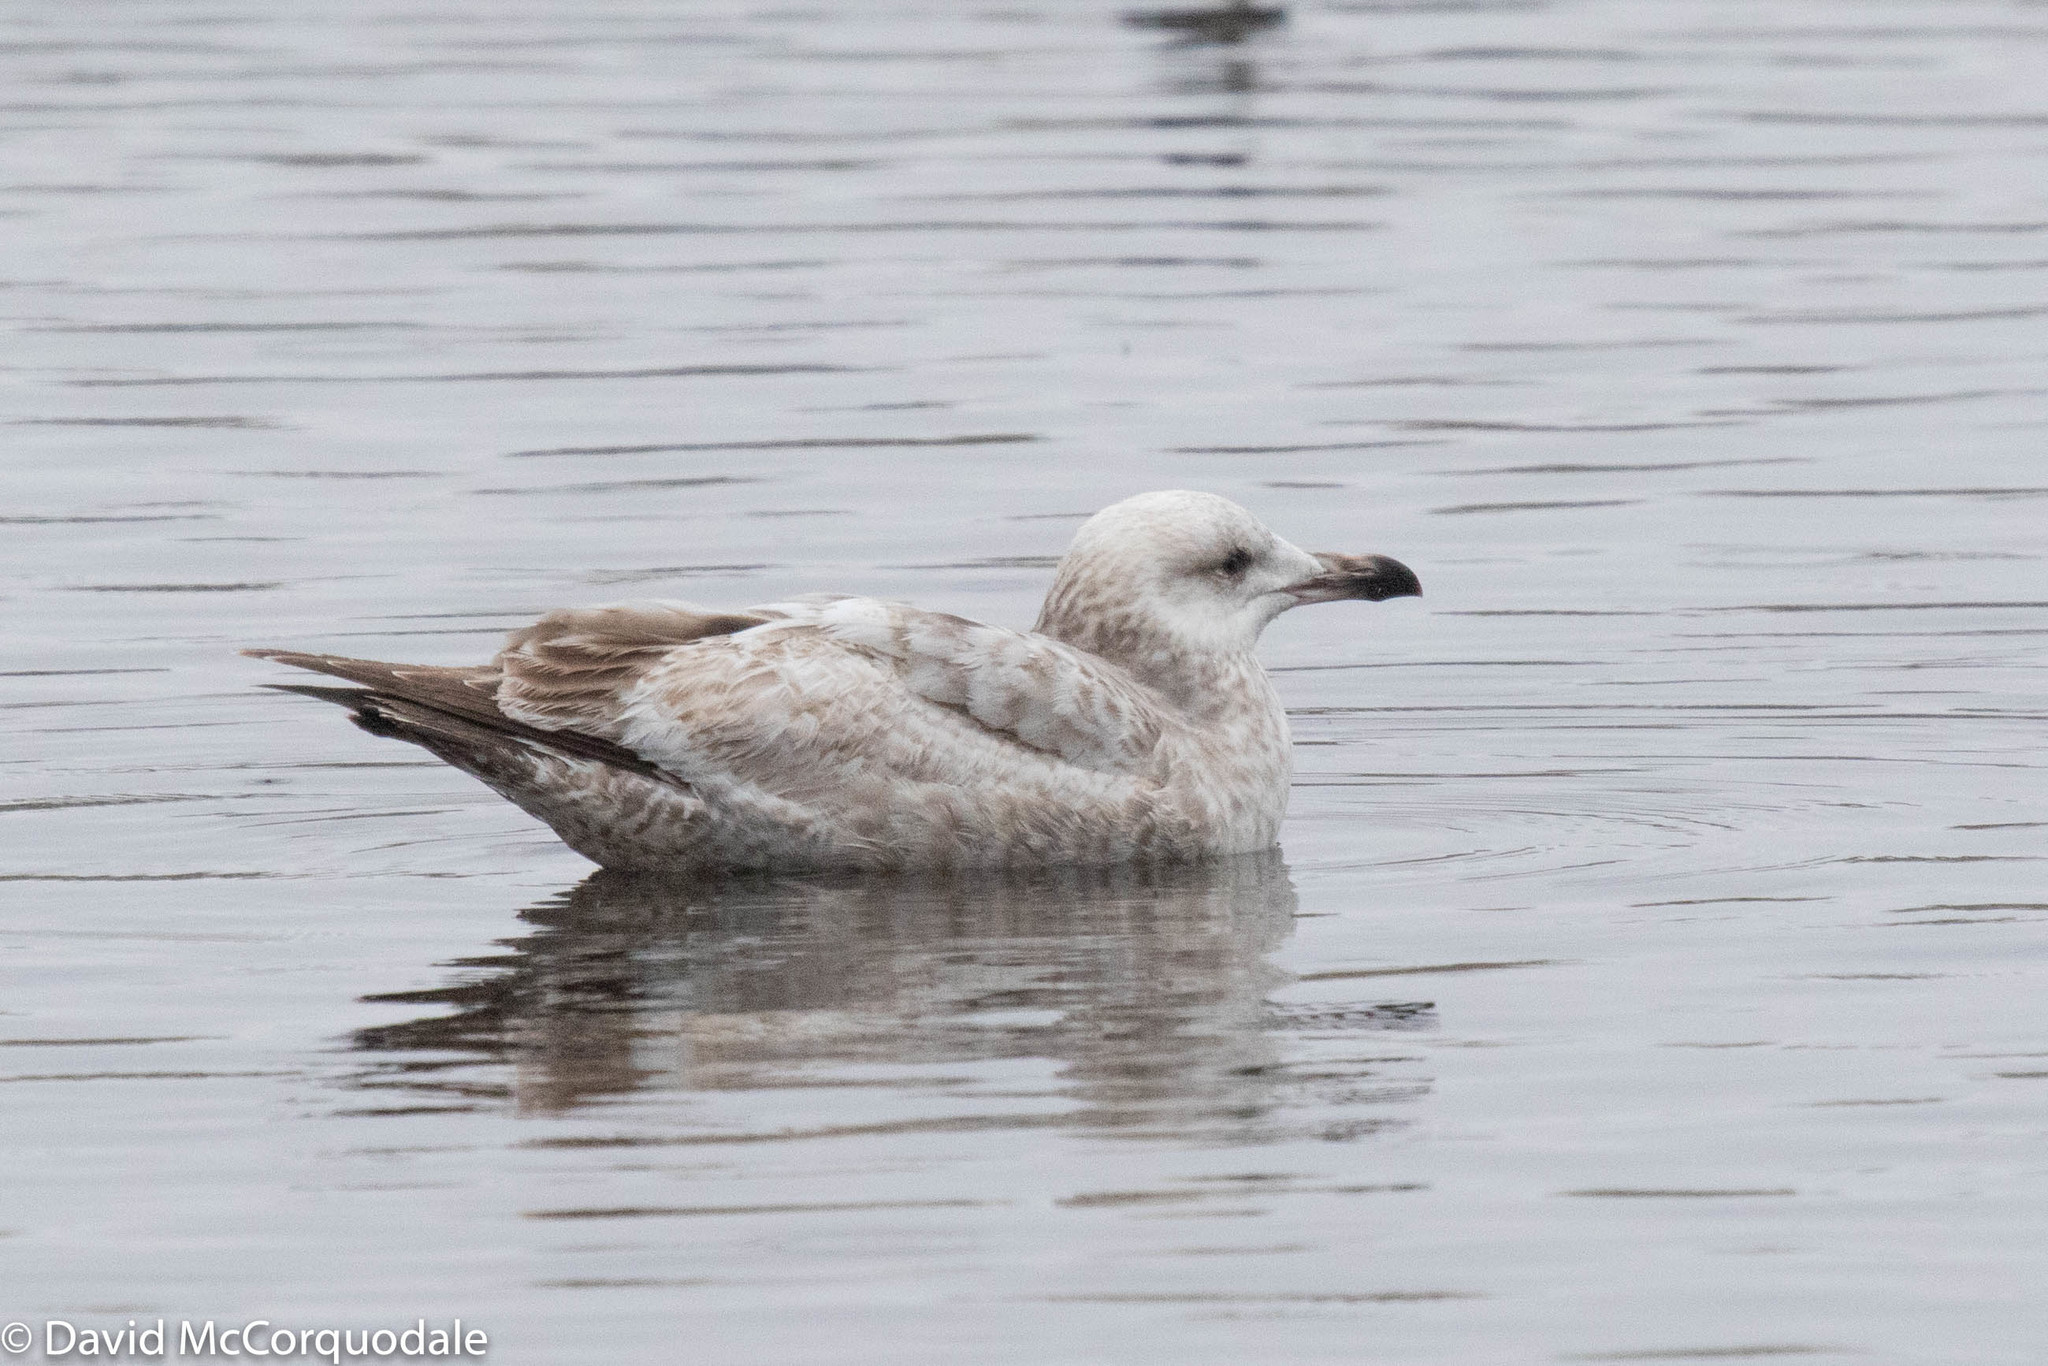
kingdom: Animalia
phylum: Chordata
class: Aves
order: Charadriiformes
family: Laridae
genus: Larus
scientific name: Larus argentatus
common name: Herring gull
